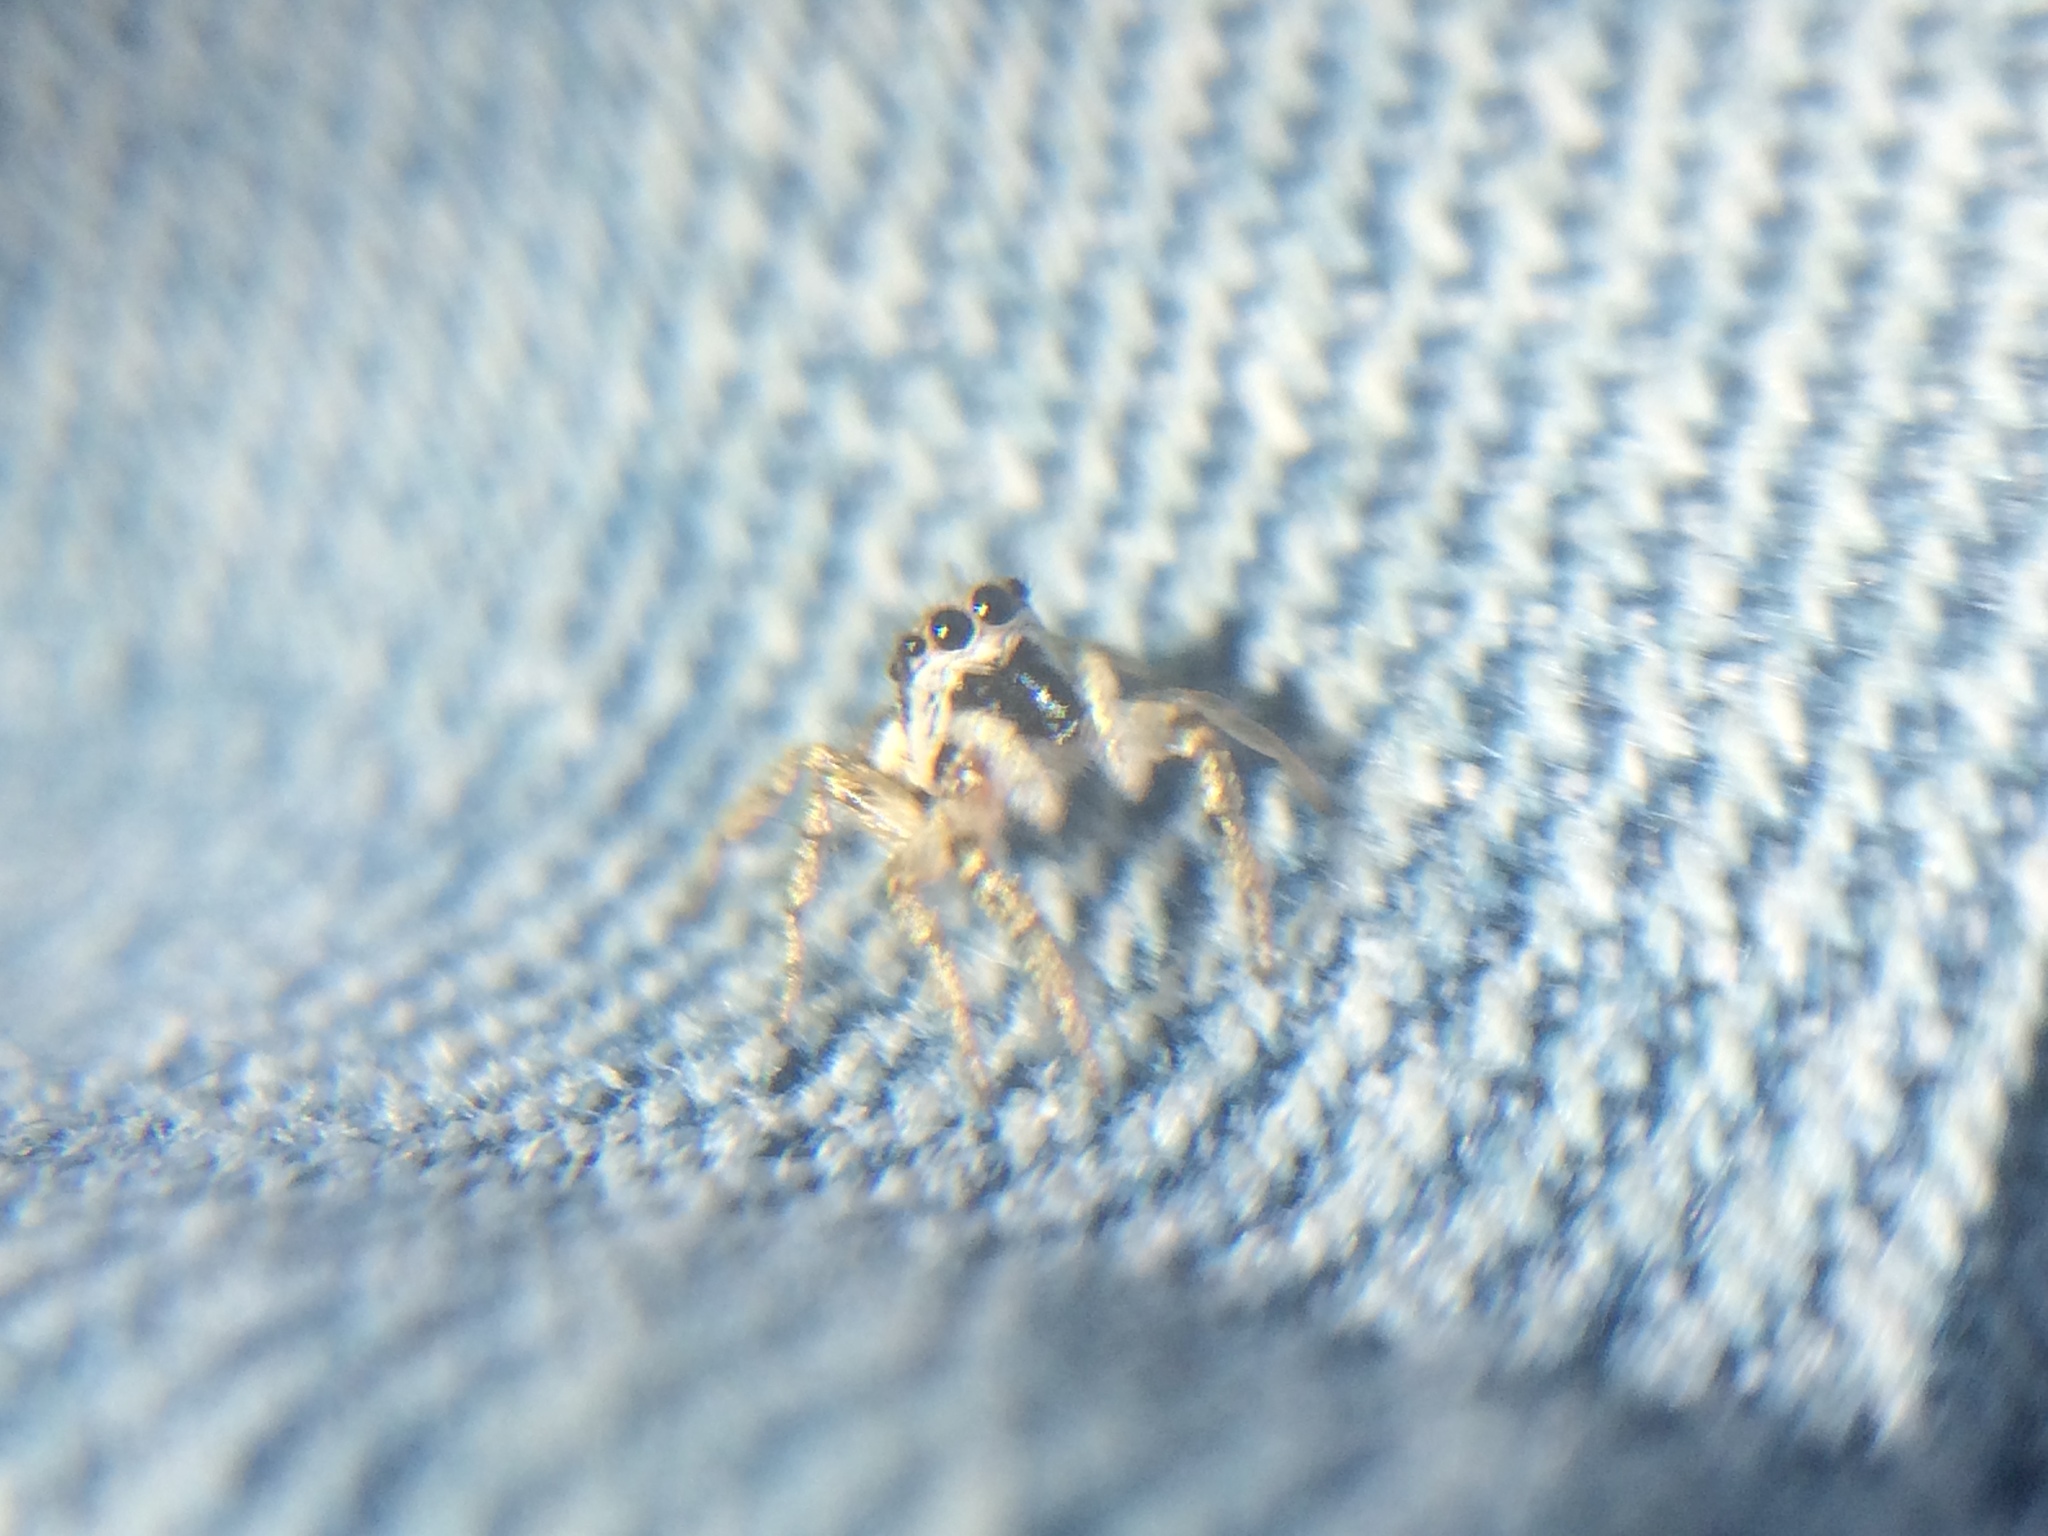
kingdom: Animalia
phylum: Arthropoda
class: Arachnida
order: Araneae
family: Salticidae
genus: Salticus
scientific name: Salticus scenicus
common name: Zebra jumper
